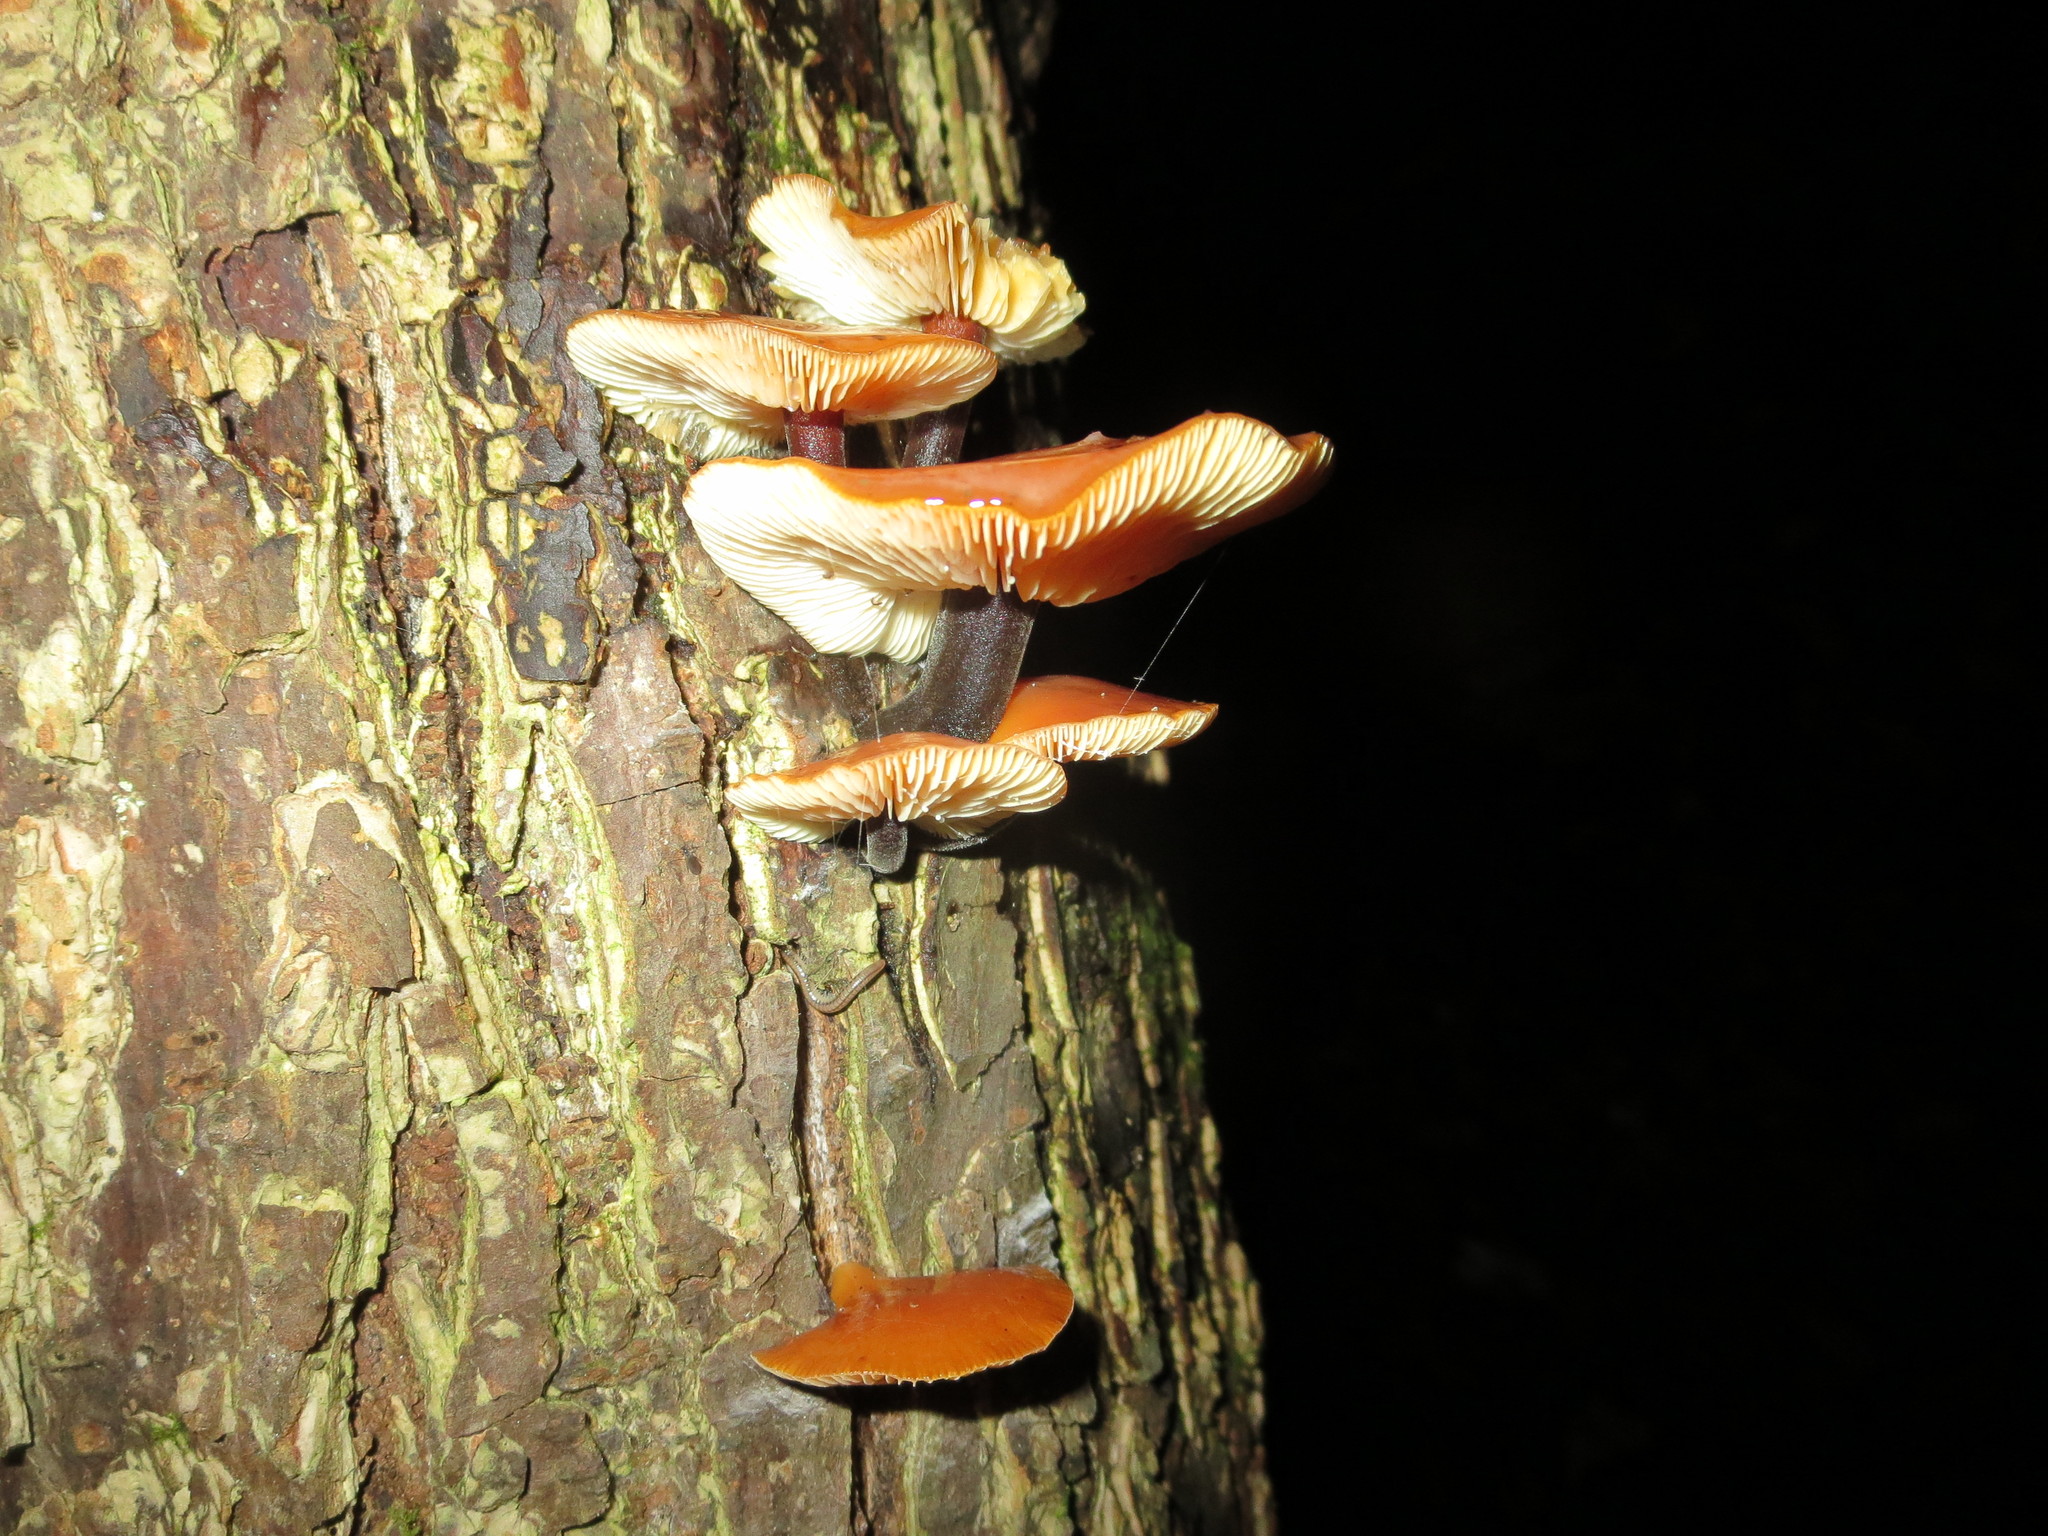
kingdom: Fungi
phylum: Basidiomycota
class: Agaricomycetes
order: Agaricales
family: Physalacriaceae
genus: Flammulina
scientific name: Flammulina velutipes
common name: Velvet shank
